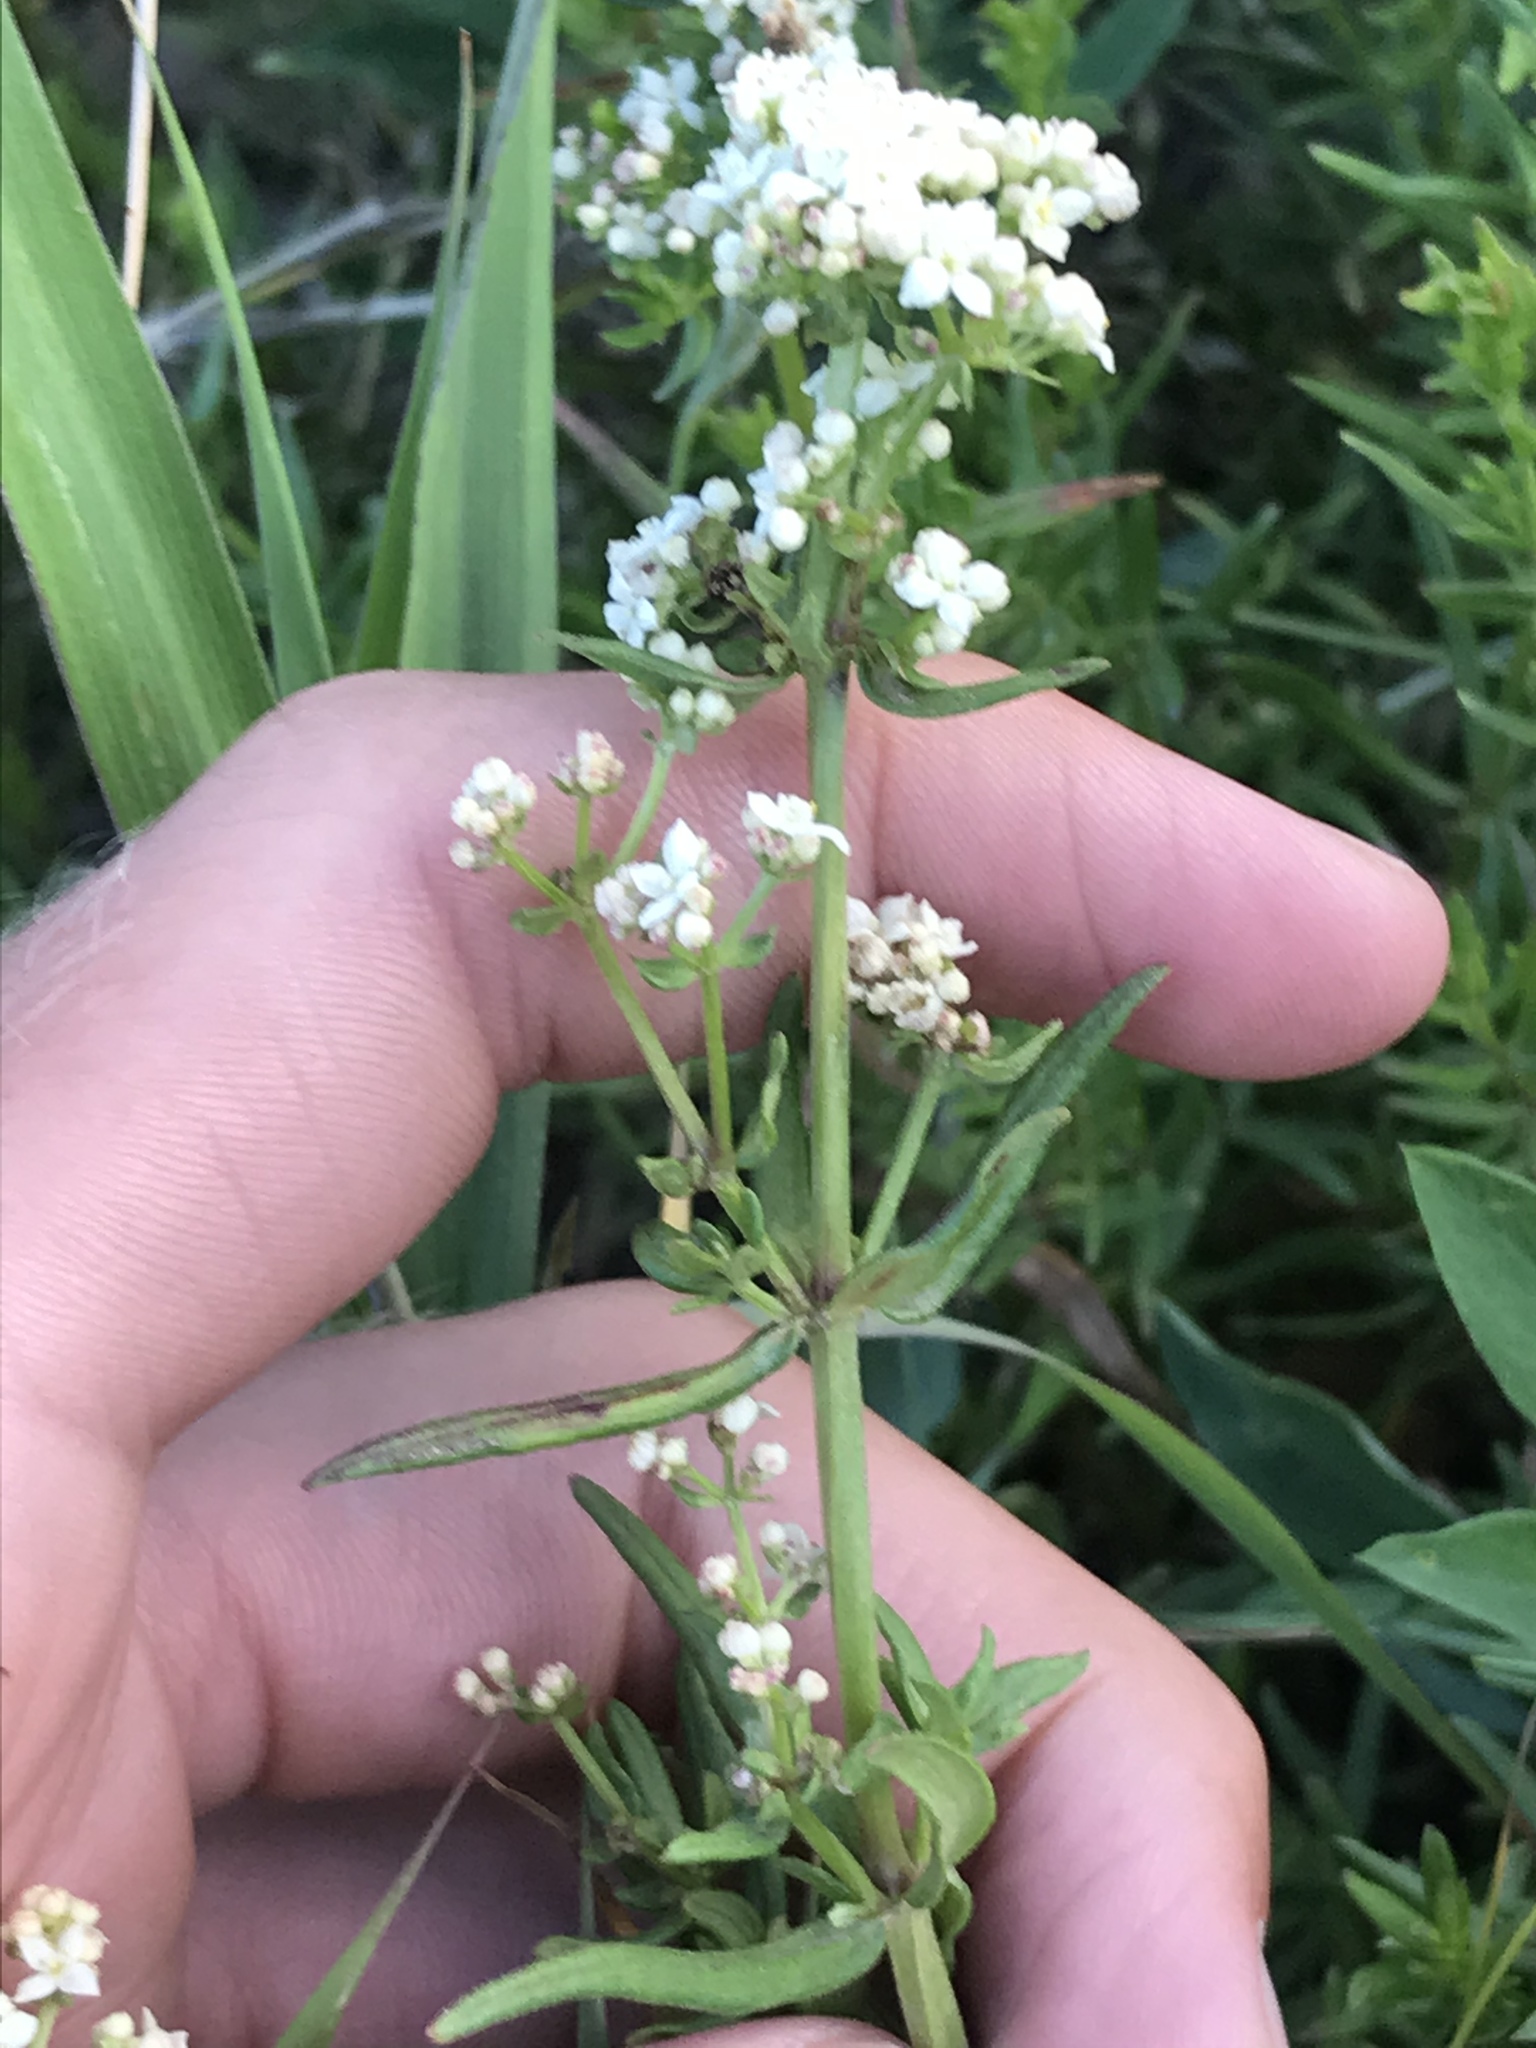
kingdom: Plantae
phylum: Tracheophyta
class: Magnoliopsida
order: Gentianales
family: Rubiaceae
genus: Galium
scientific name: Galium boreale
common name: Northern bedstraw
